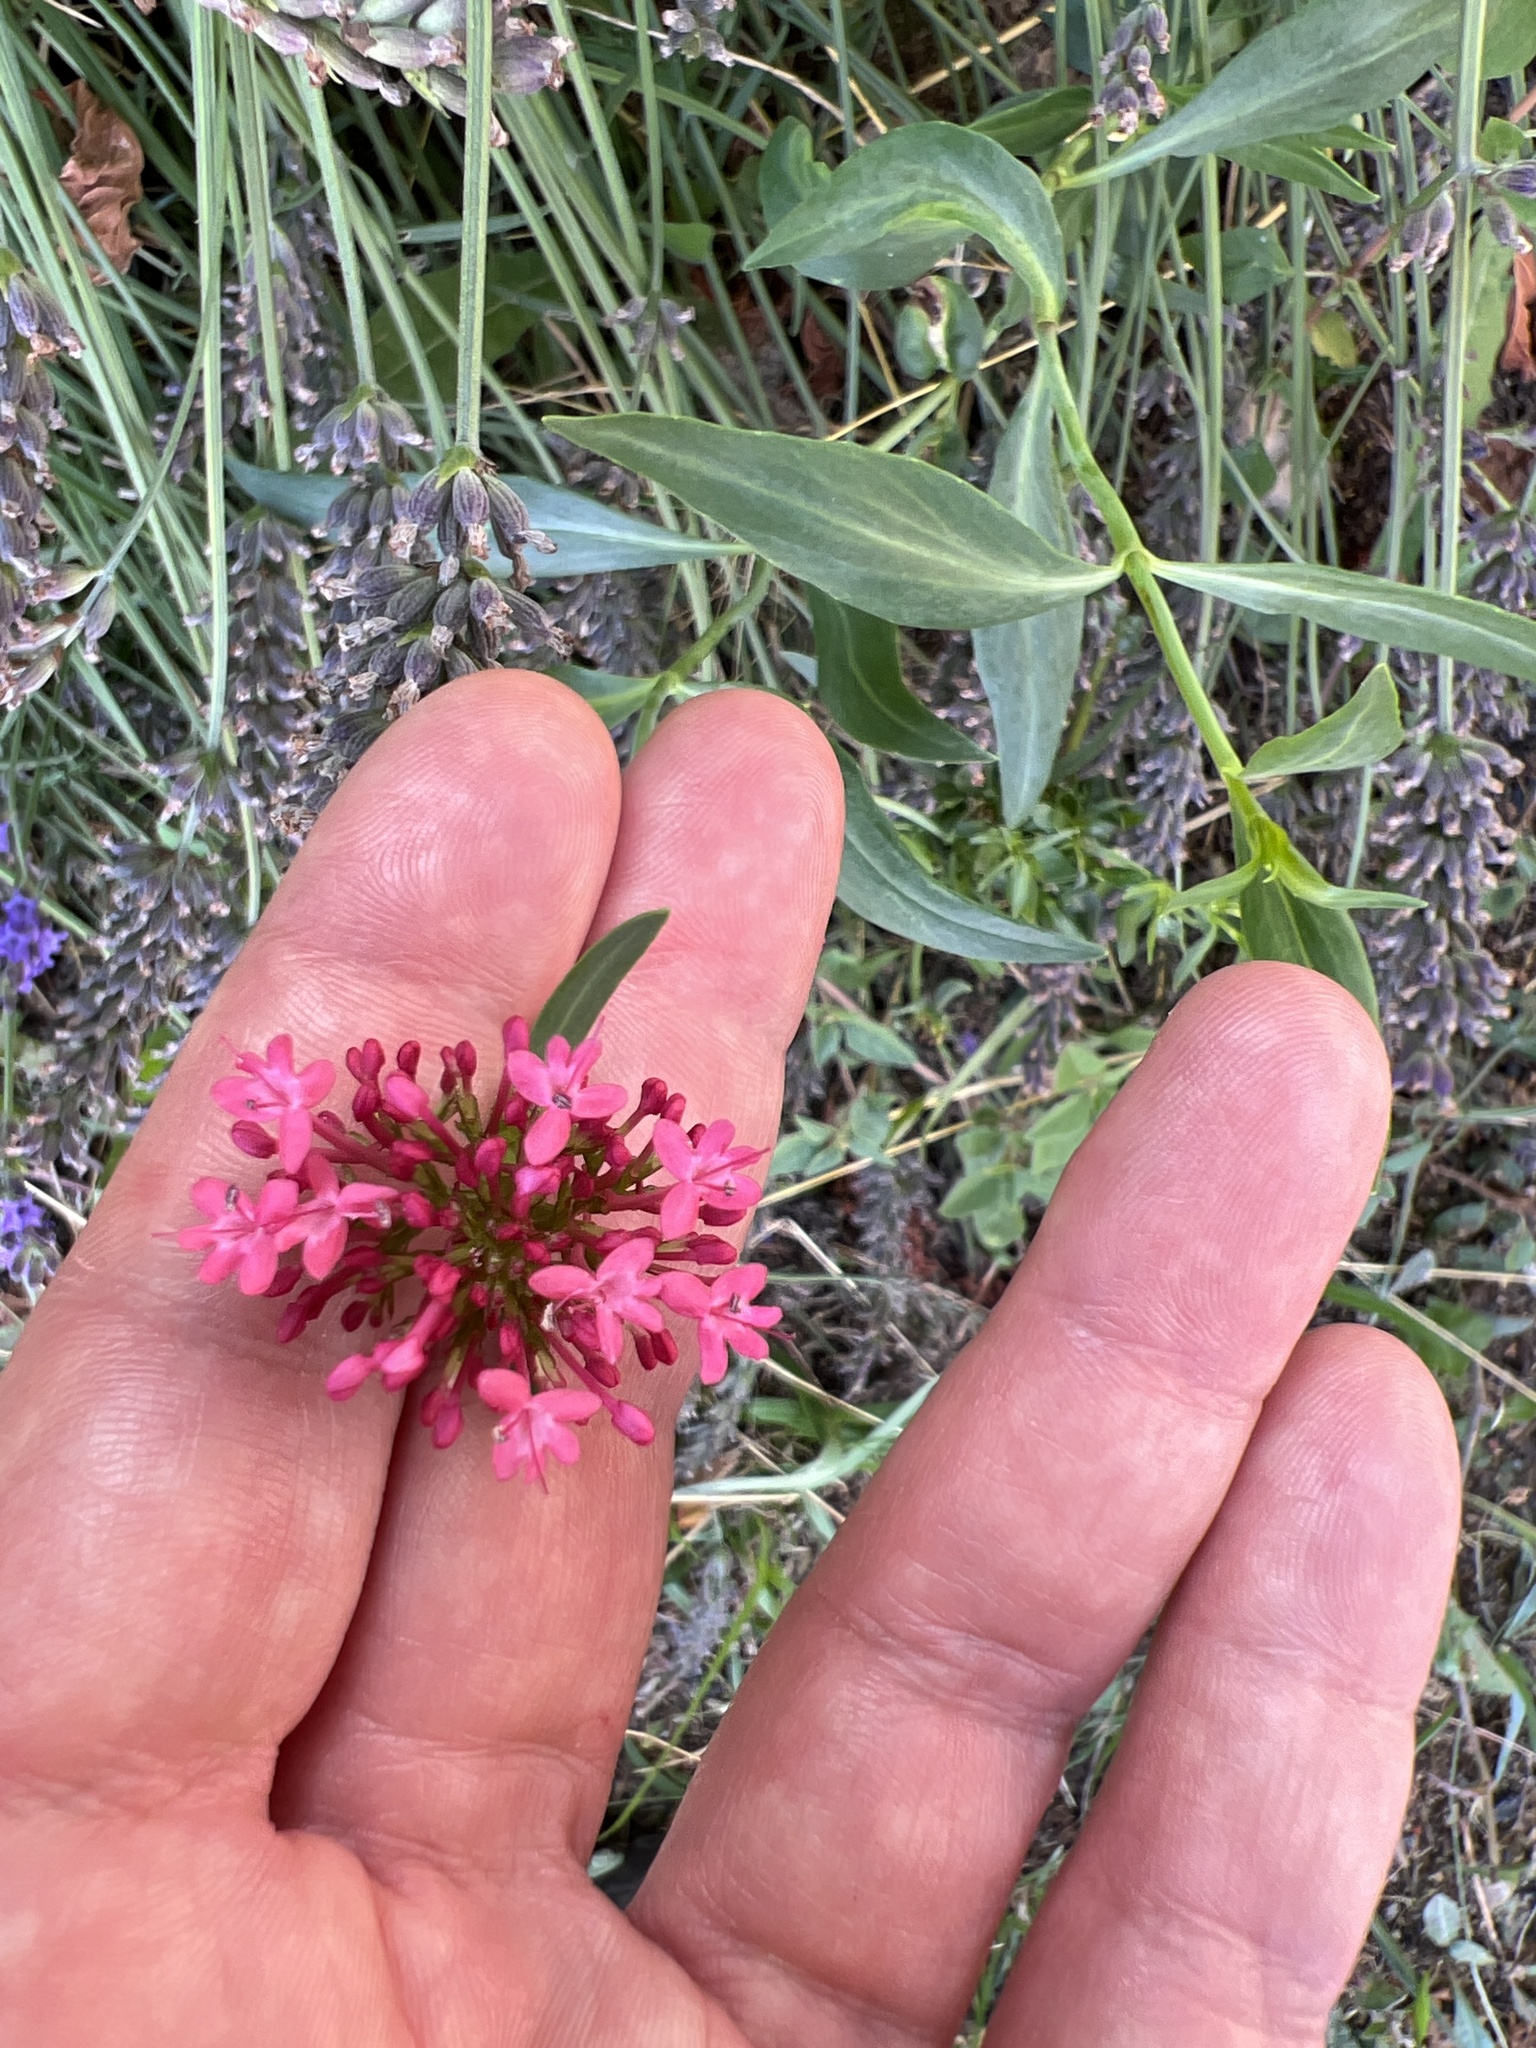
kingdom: Plantae
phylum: Tracheophyta
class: Magnoliopsida
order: Dipsacales
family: Caprifoliaceae
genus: Centranthus
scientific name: Centranthus ruber
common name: Red valerian
